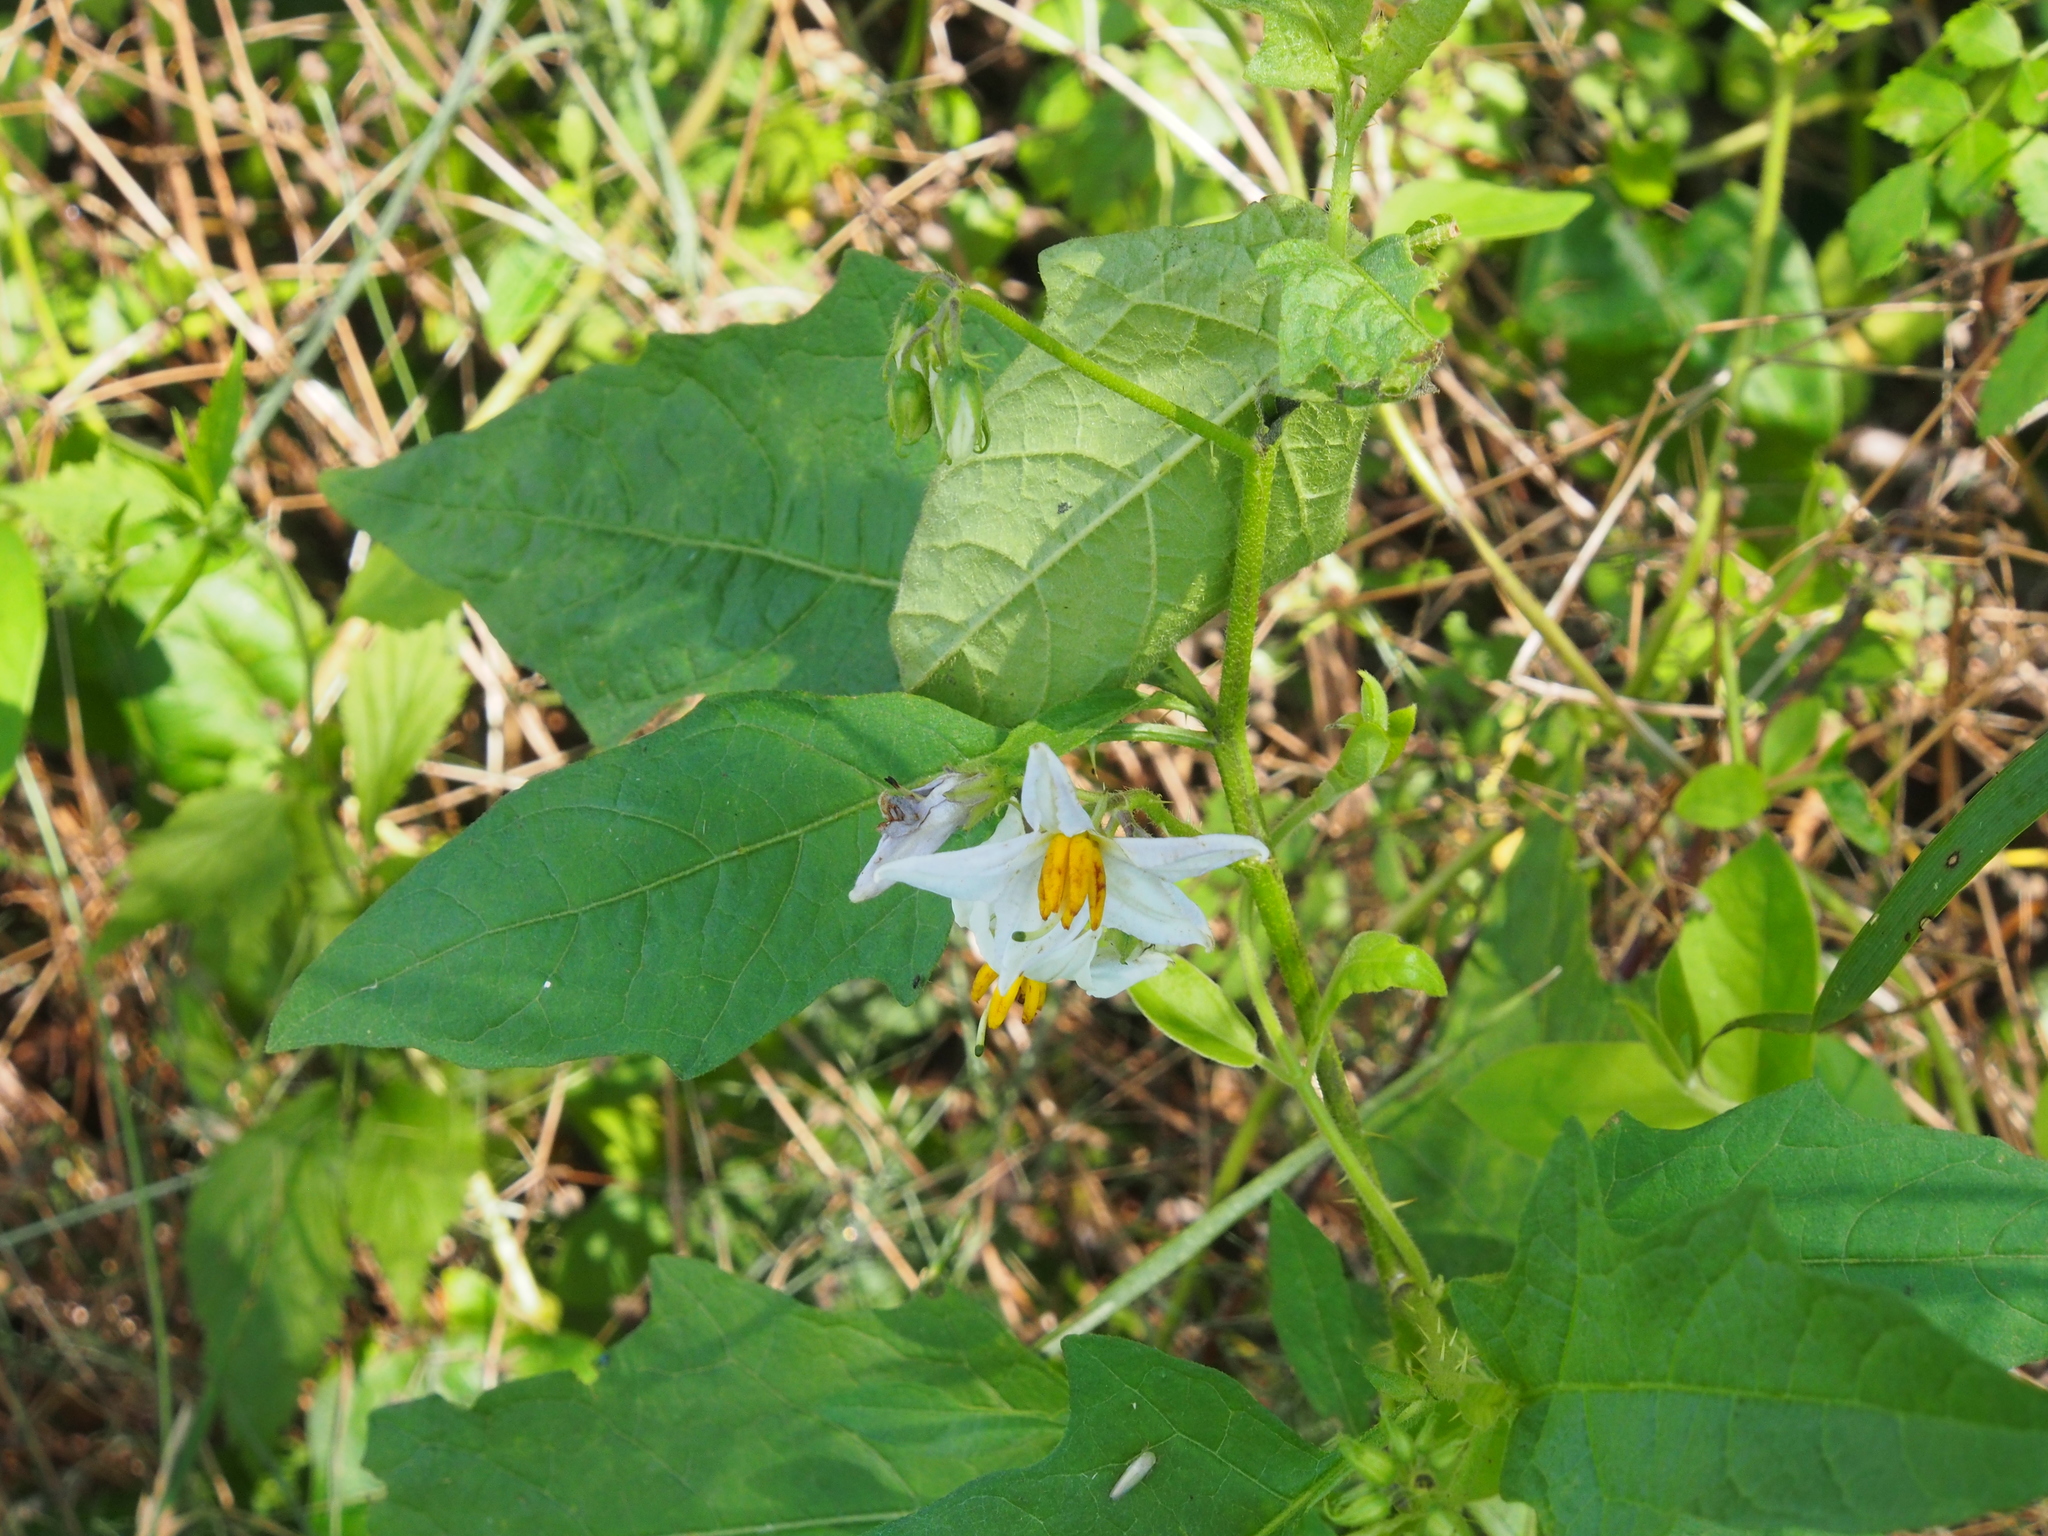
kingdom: Plantae
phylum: Tracheophyta
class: Magnoliopsida
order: Solanales
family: Solanaceae
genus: Solanum
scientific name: Solanum carolinense
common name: Horse-nettle
